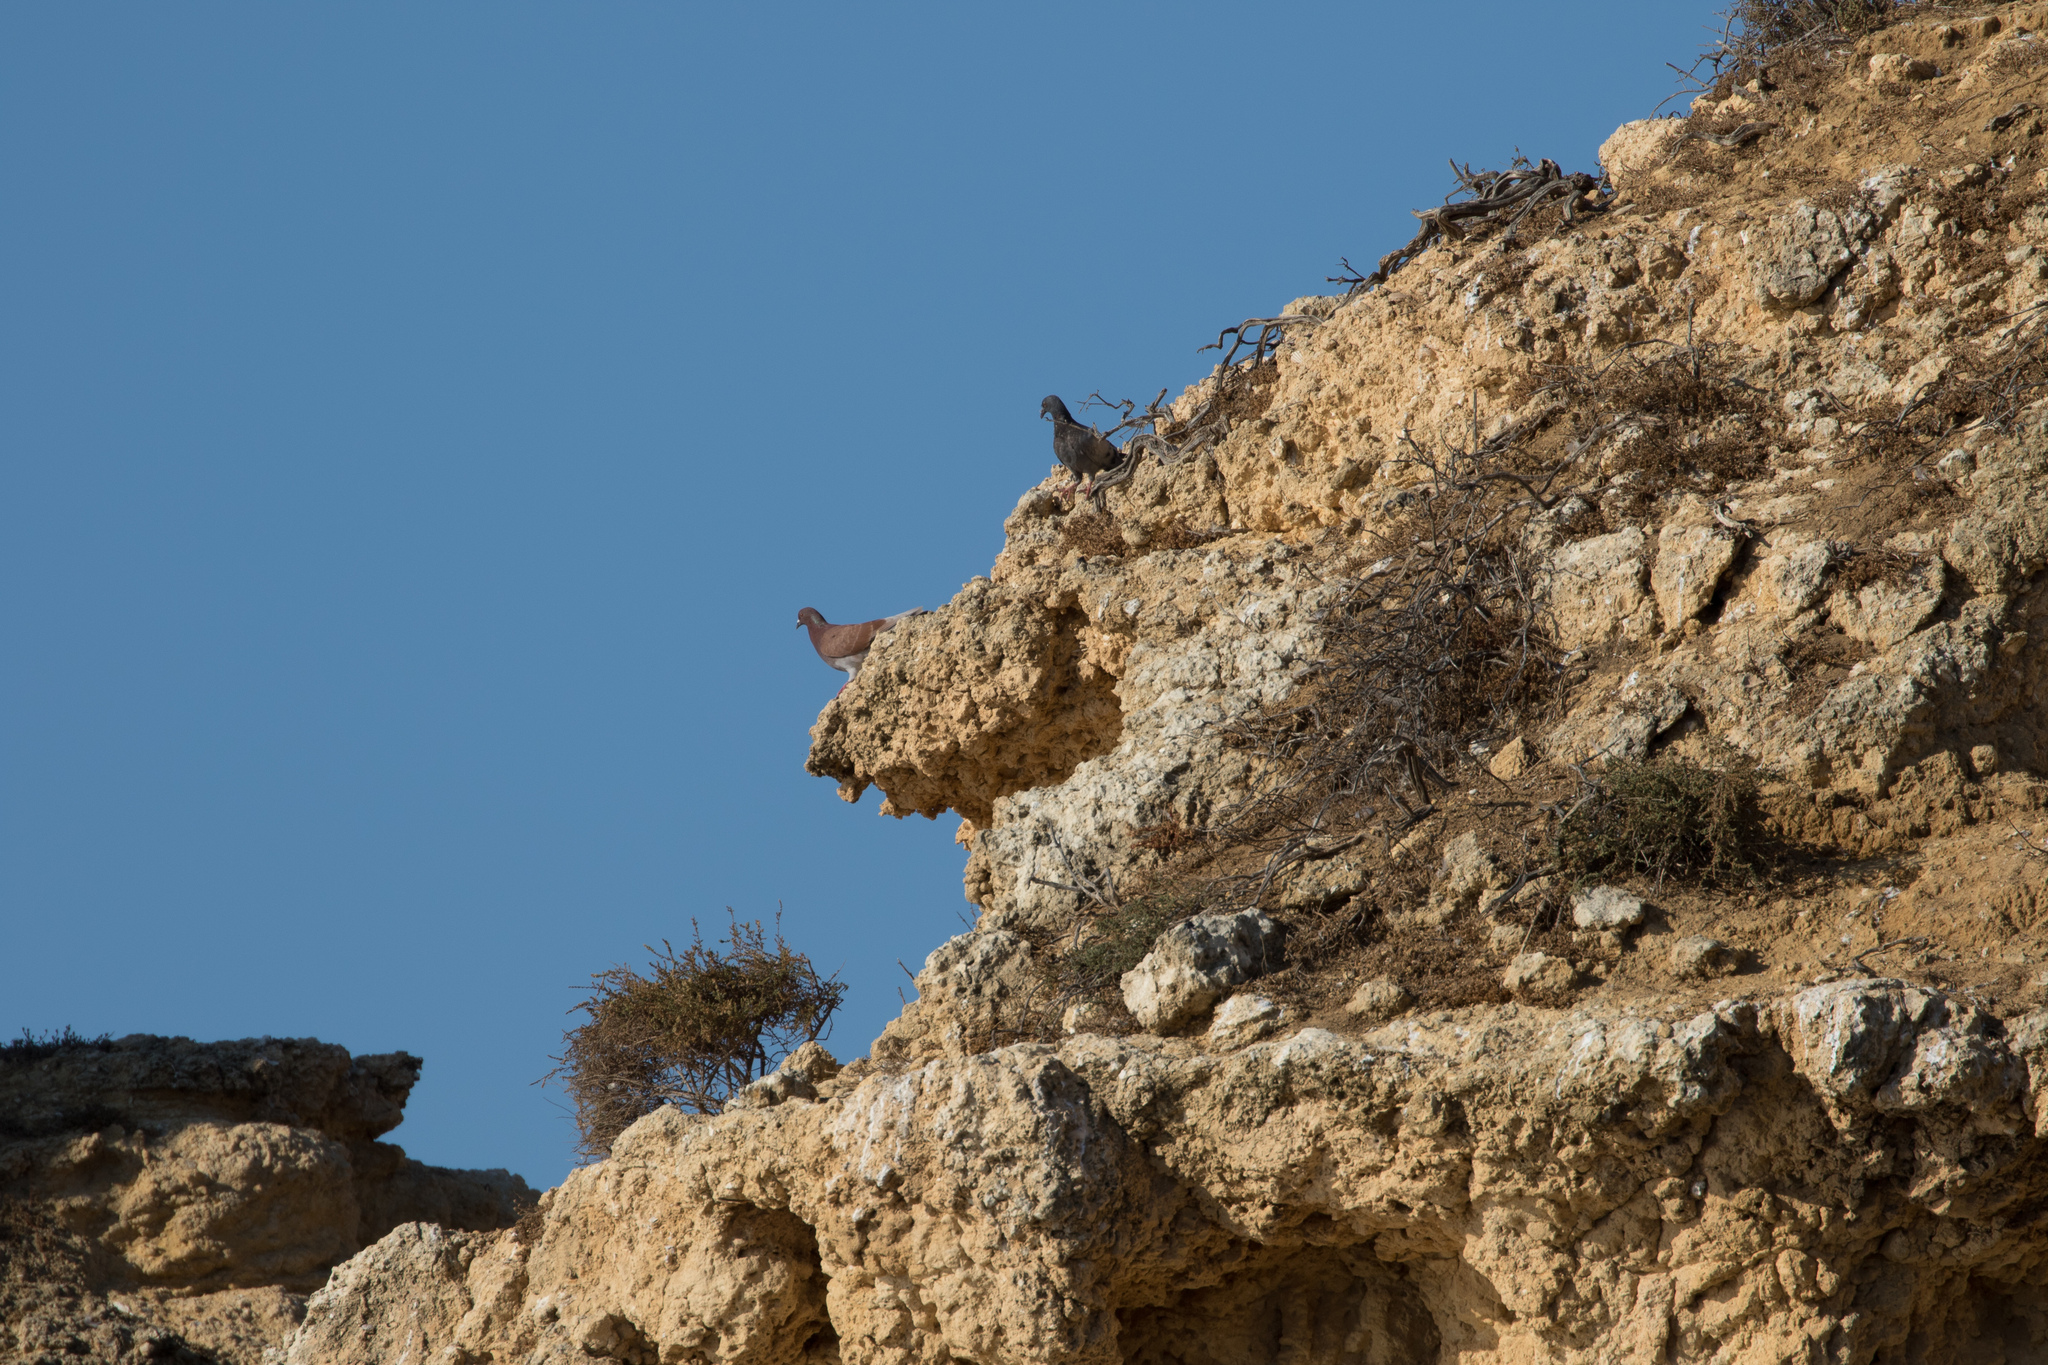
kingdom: Animalia
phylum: Chordata
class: Aves
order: Columbiformes
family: Columbidae
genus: Columba
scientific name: Columba livia
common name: Rock pigeon
